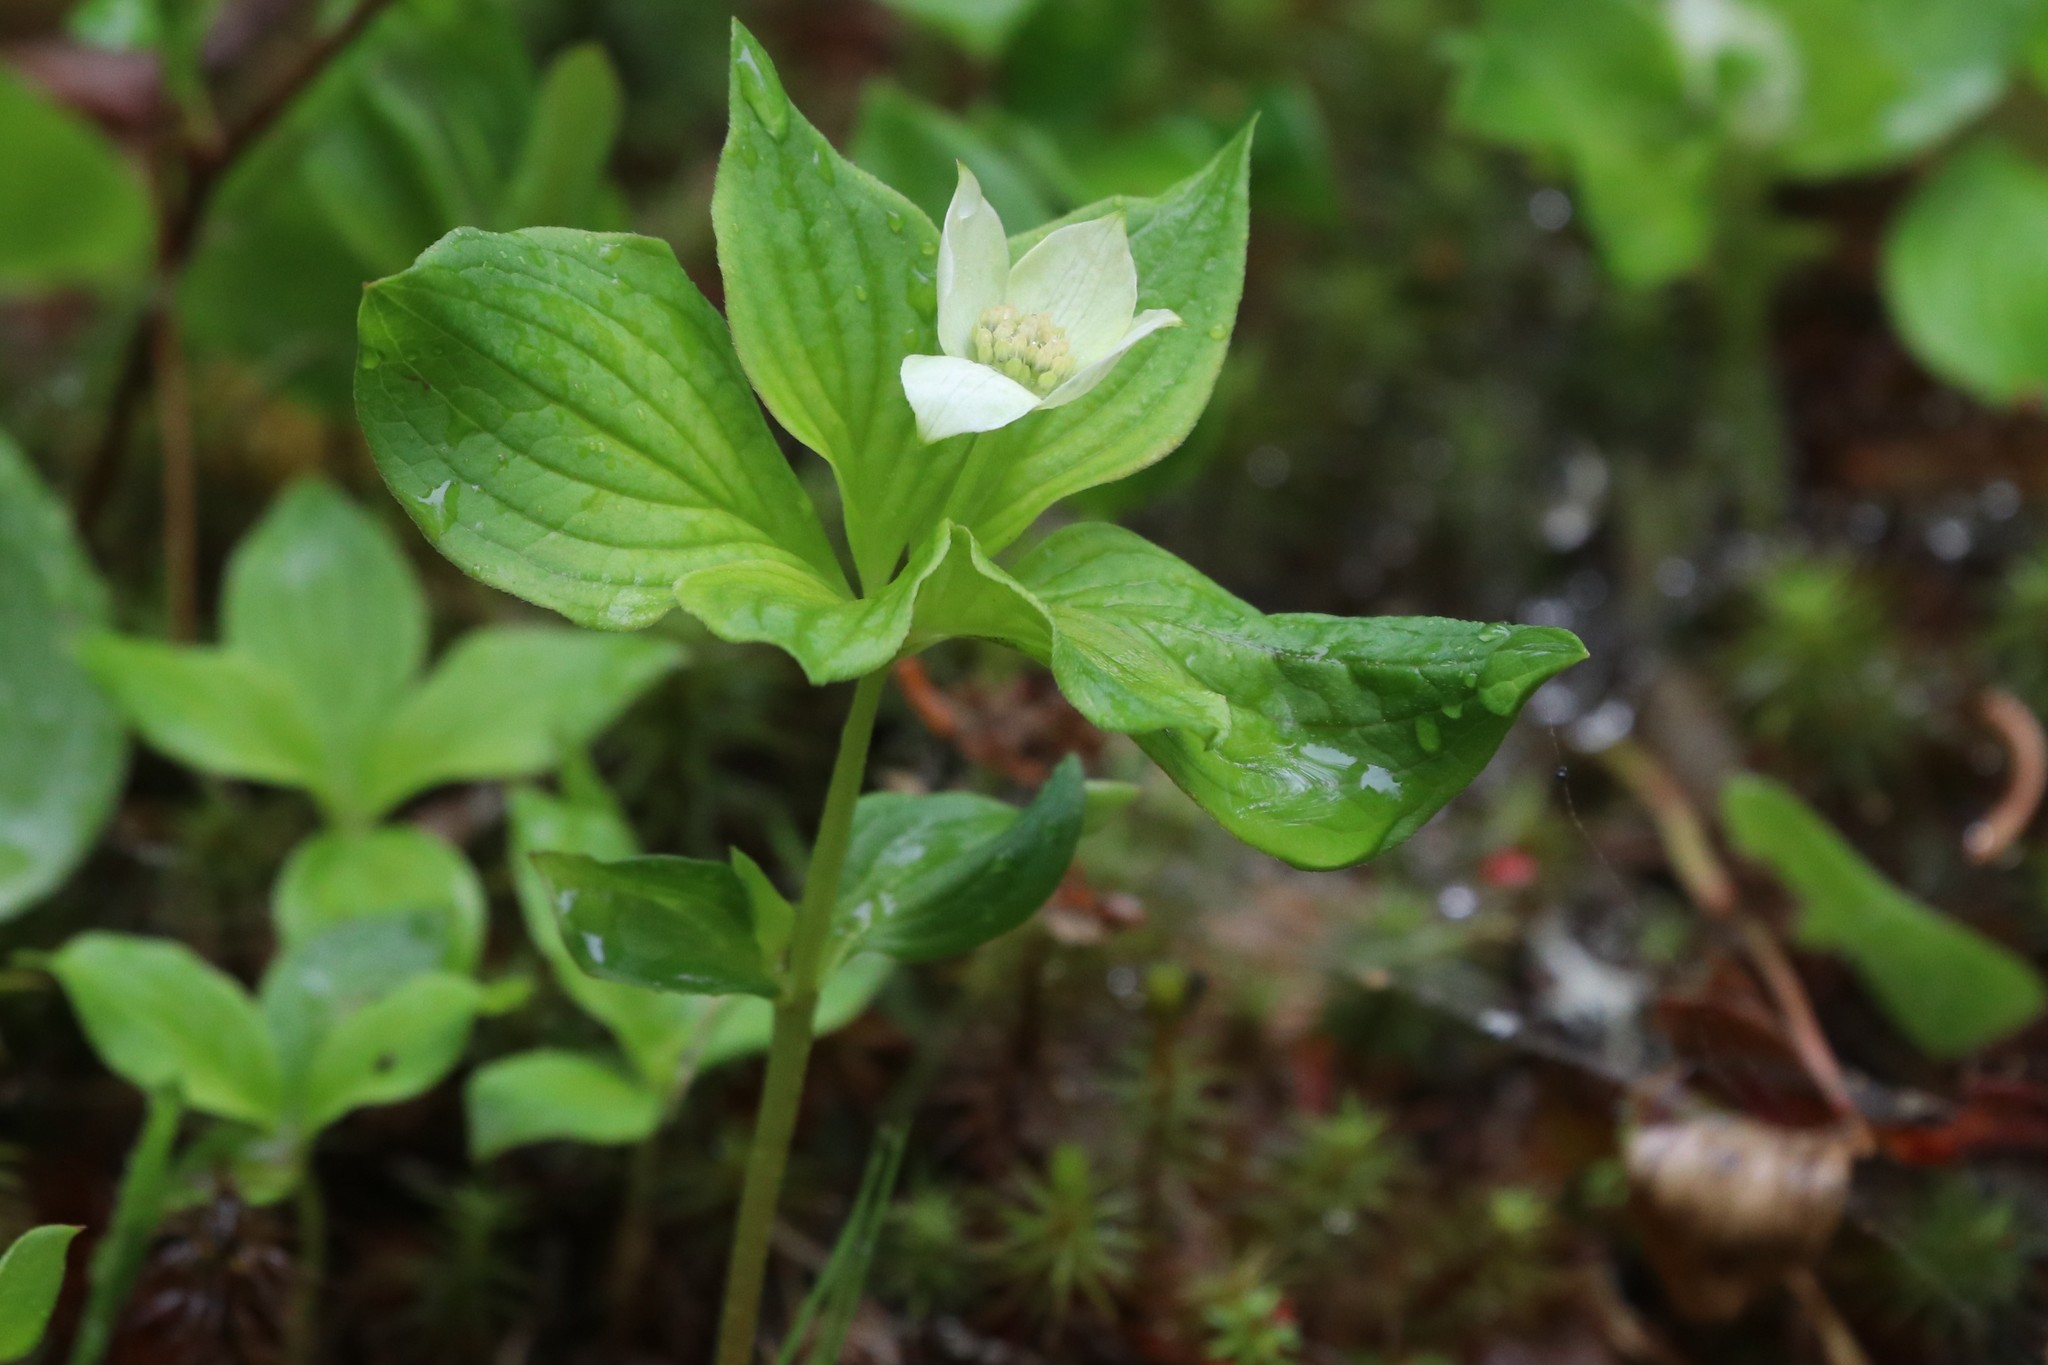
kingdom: Plantae
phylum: Tracheophyta
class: Magnoliopsida
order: Cornales
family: Cornaceae
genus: Cornus
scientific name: Cornus canadensis
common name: Creeping dogwood
